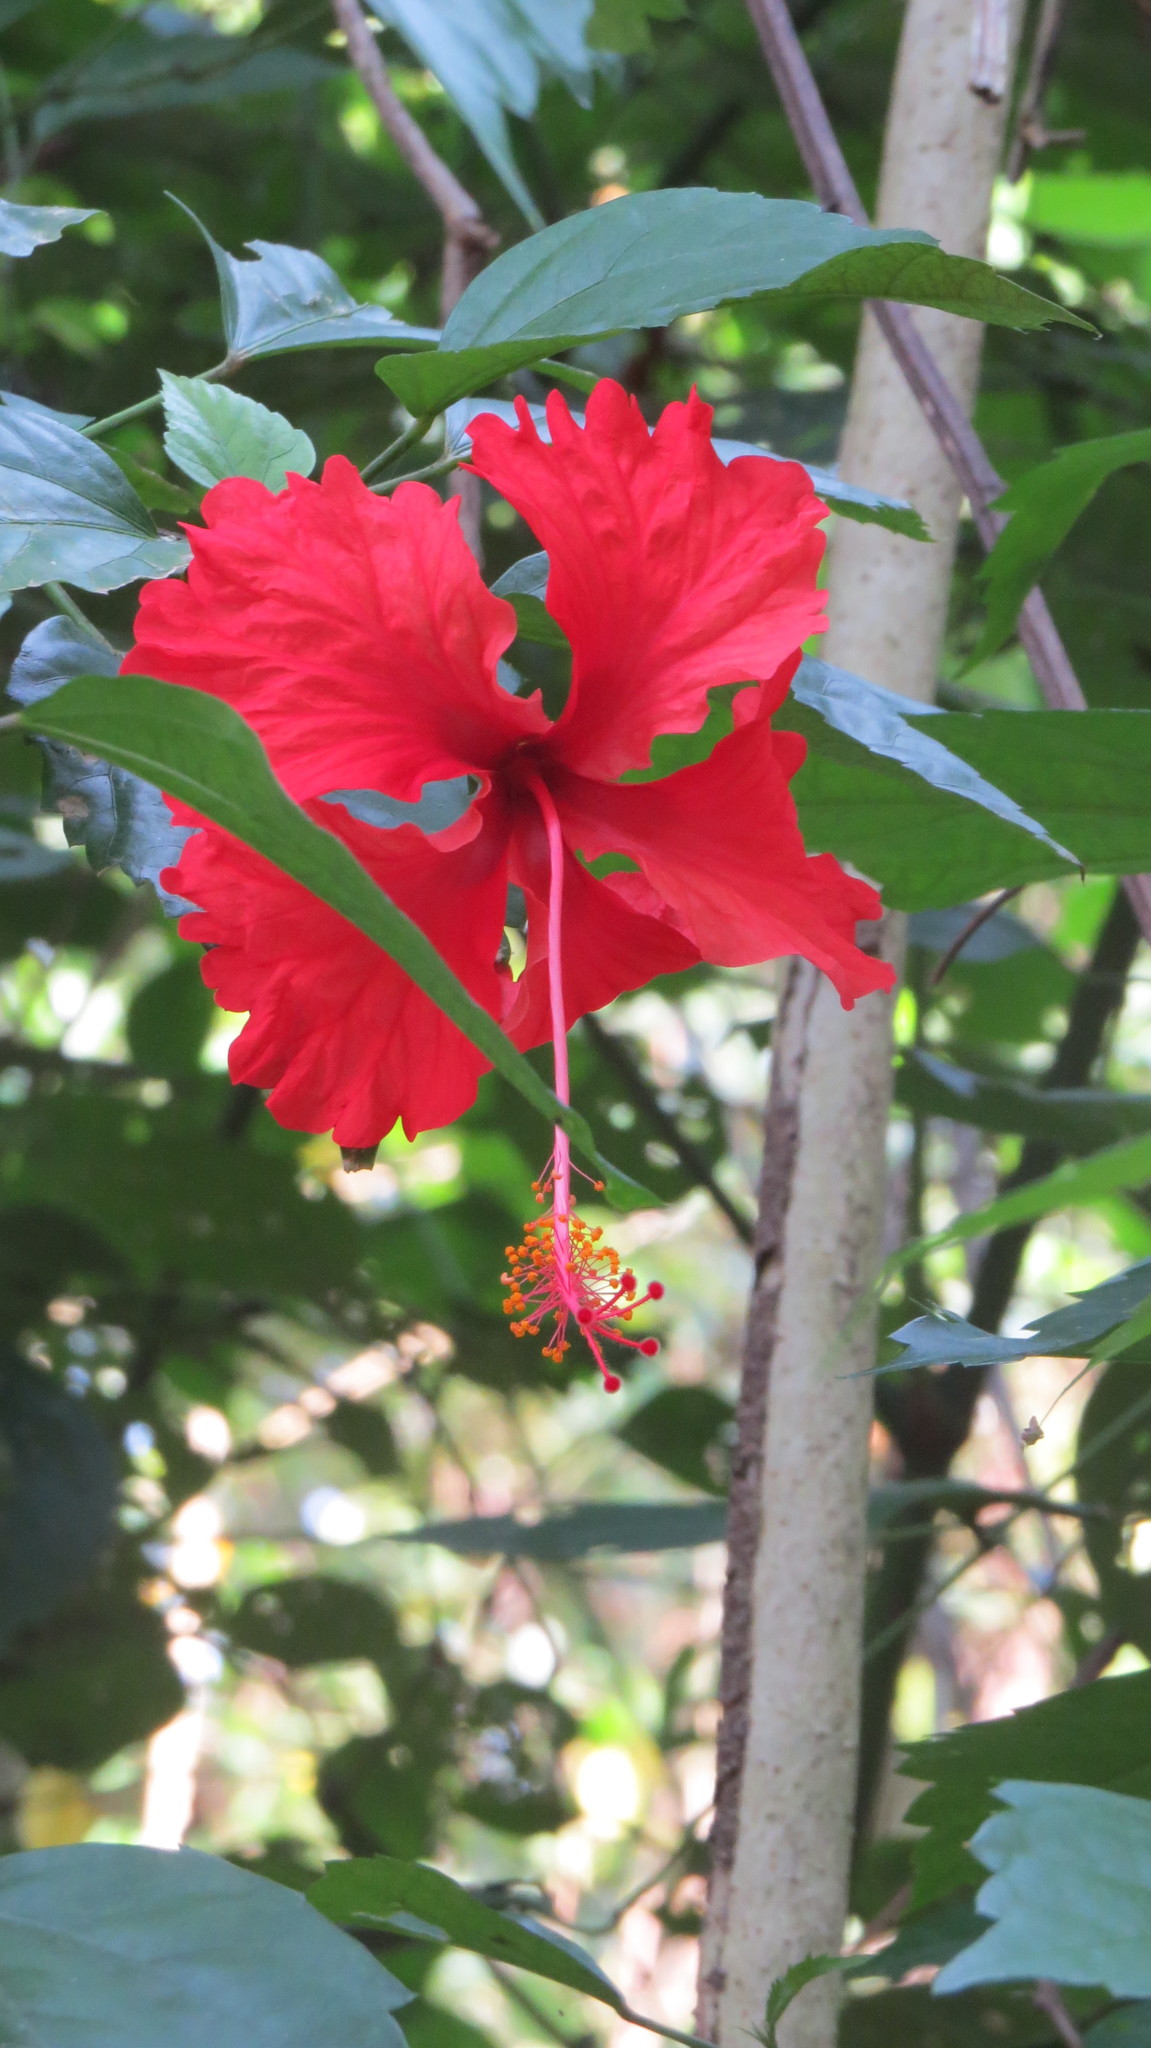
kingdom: Plantae
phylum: Tracheophyta
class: Magnoliopsida
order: Malvales
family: Malvaceae
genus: Hibiscus
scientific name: Hibiscus archeri
